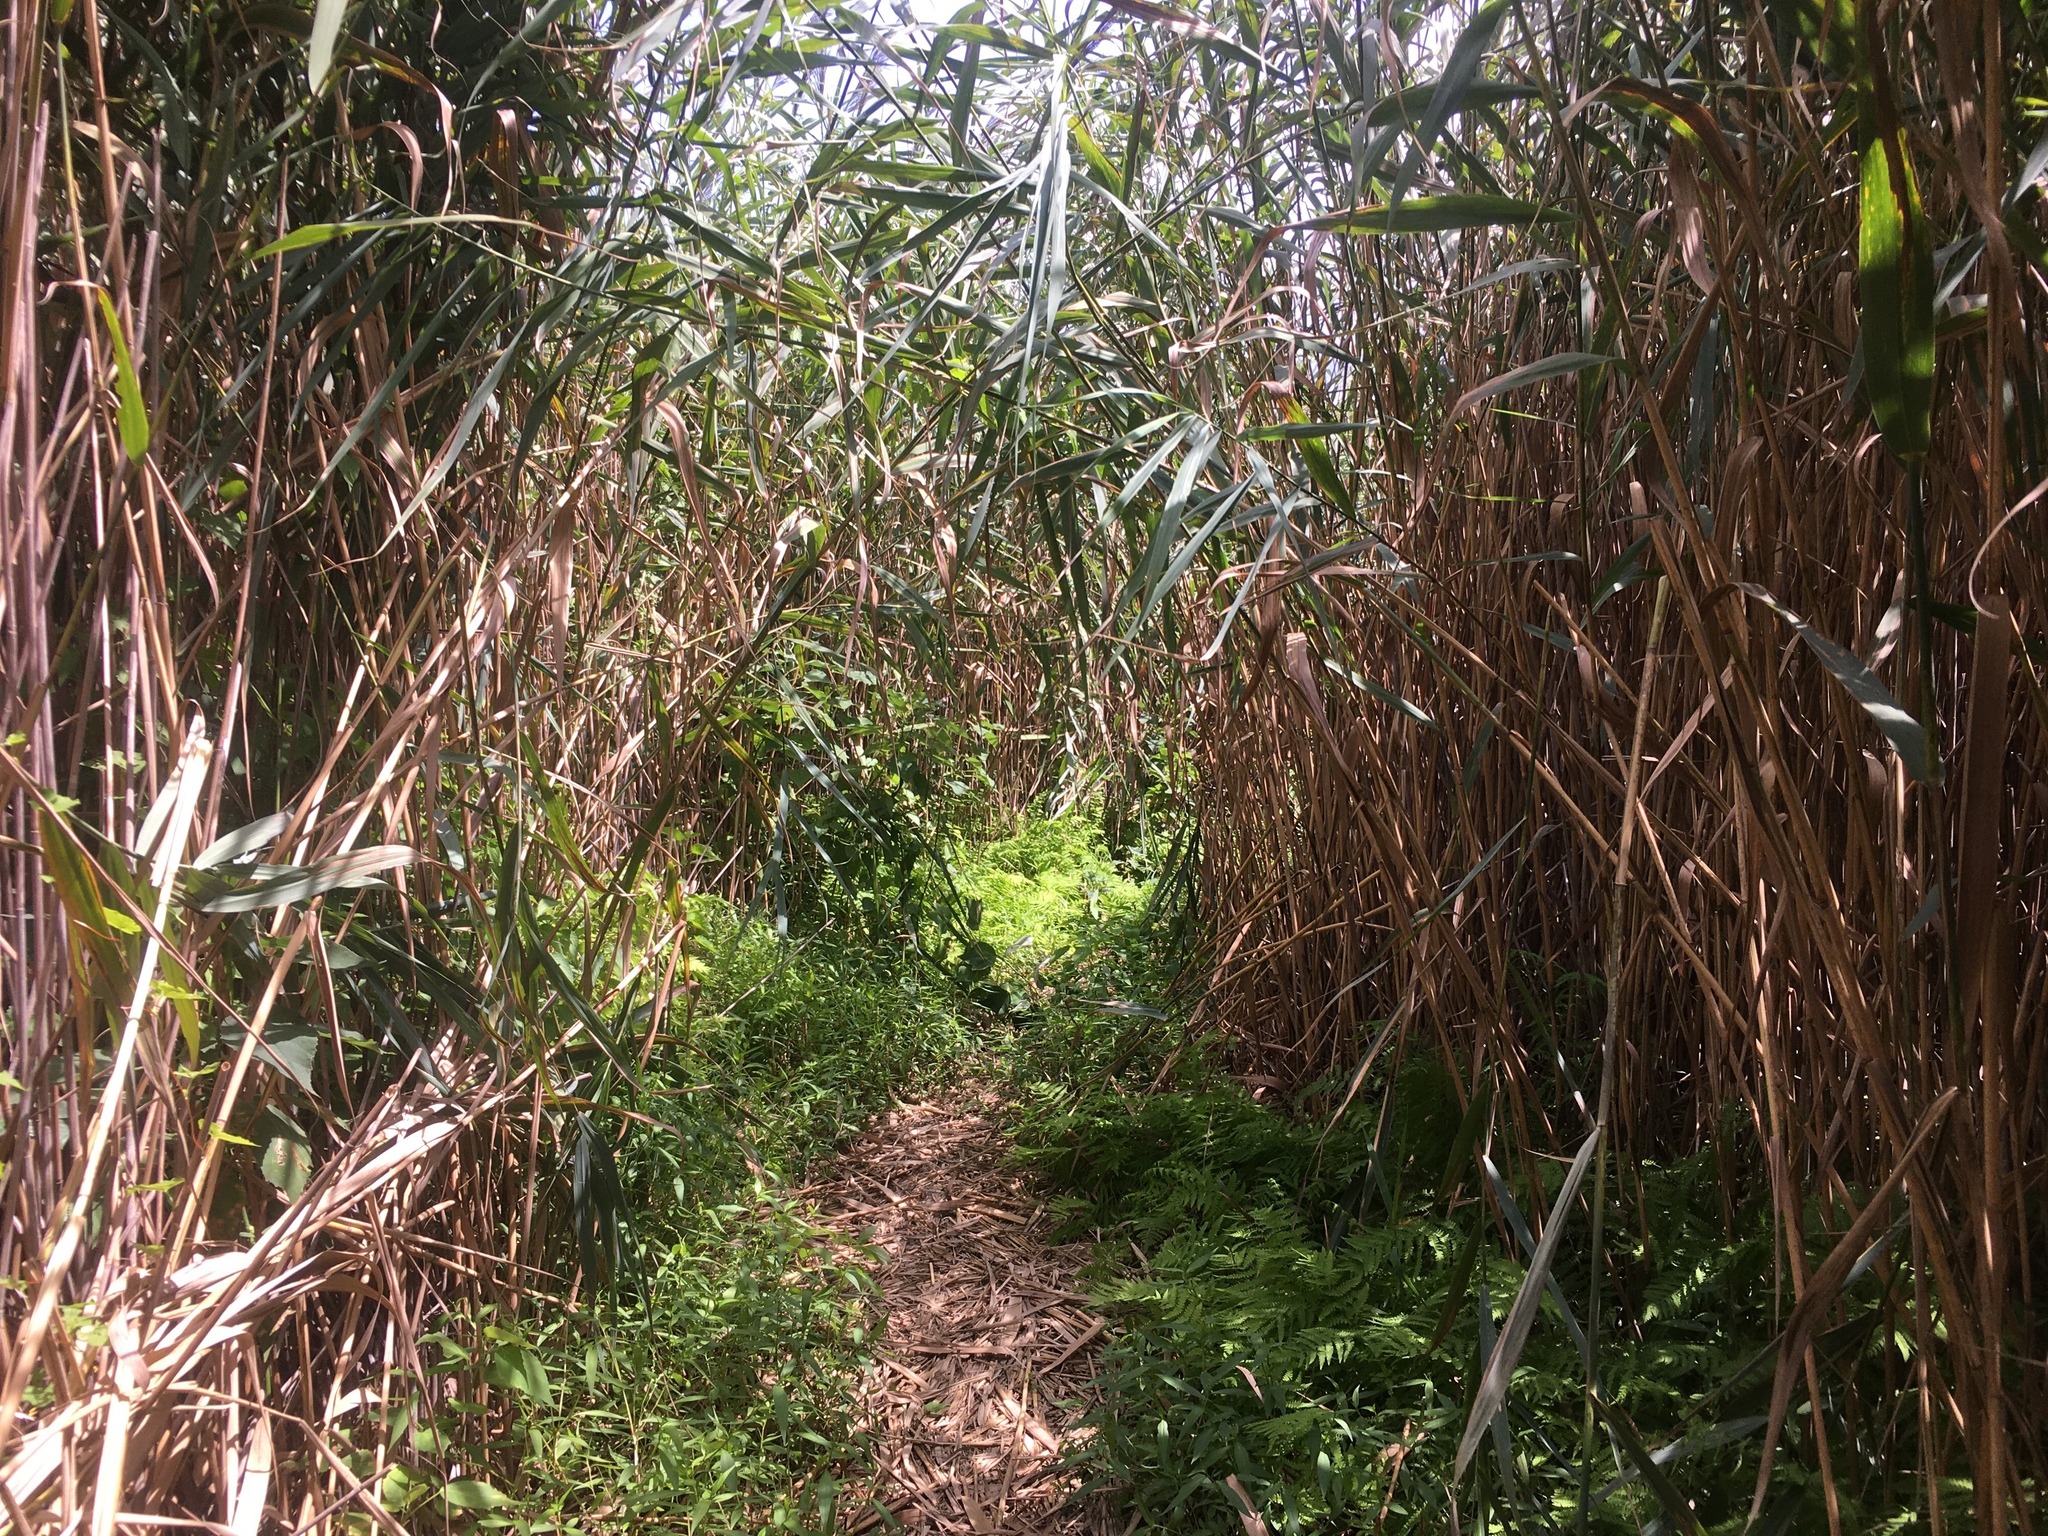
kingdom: Plantae
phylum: Tracheophyta
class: Liliopsida
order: Poales
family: Poaceae
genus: Phragmites
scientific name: Phragmites australis
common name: Common reed
